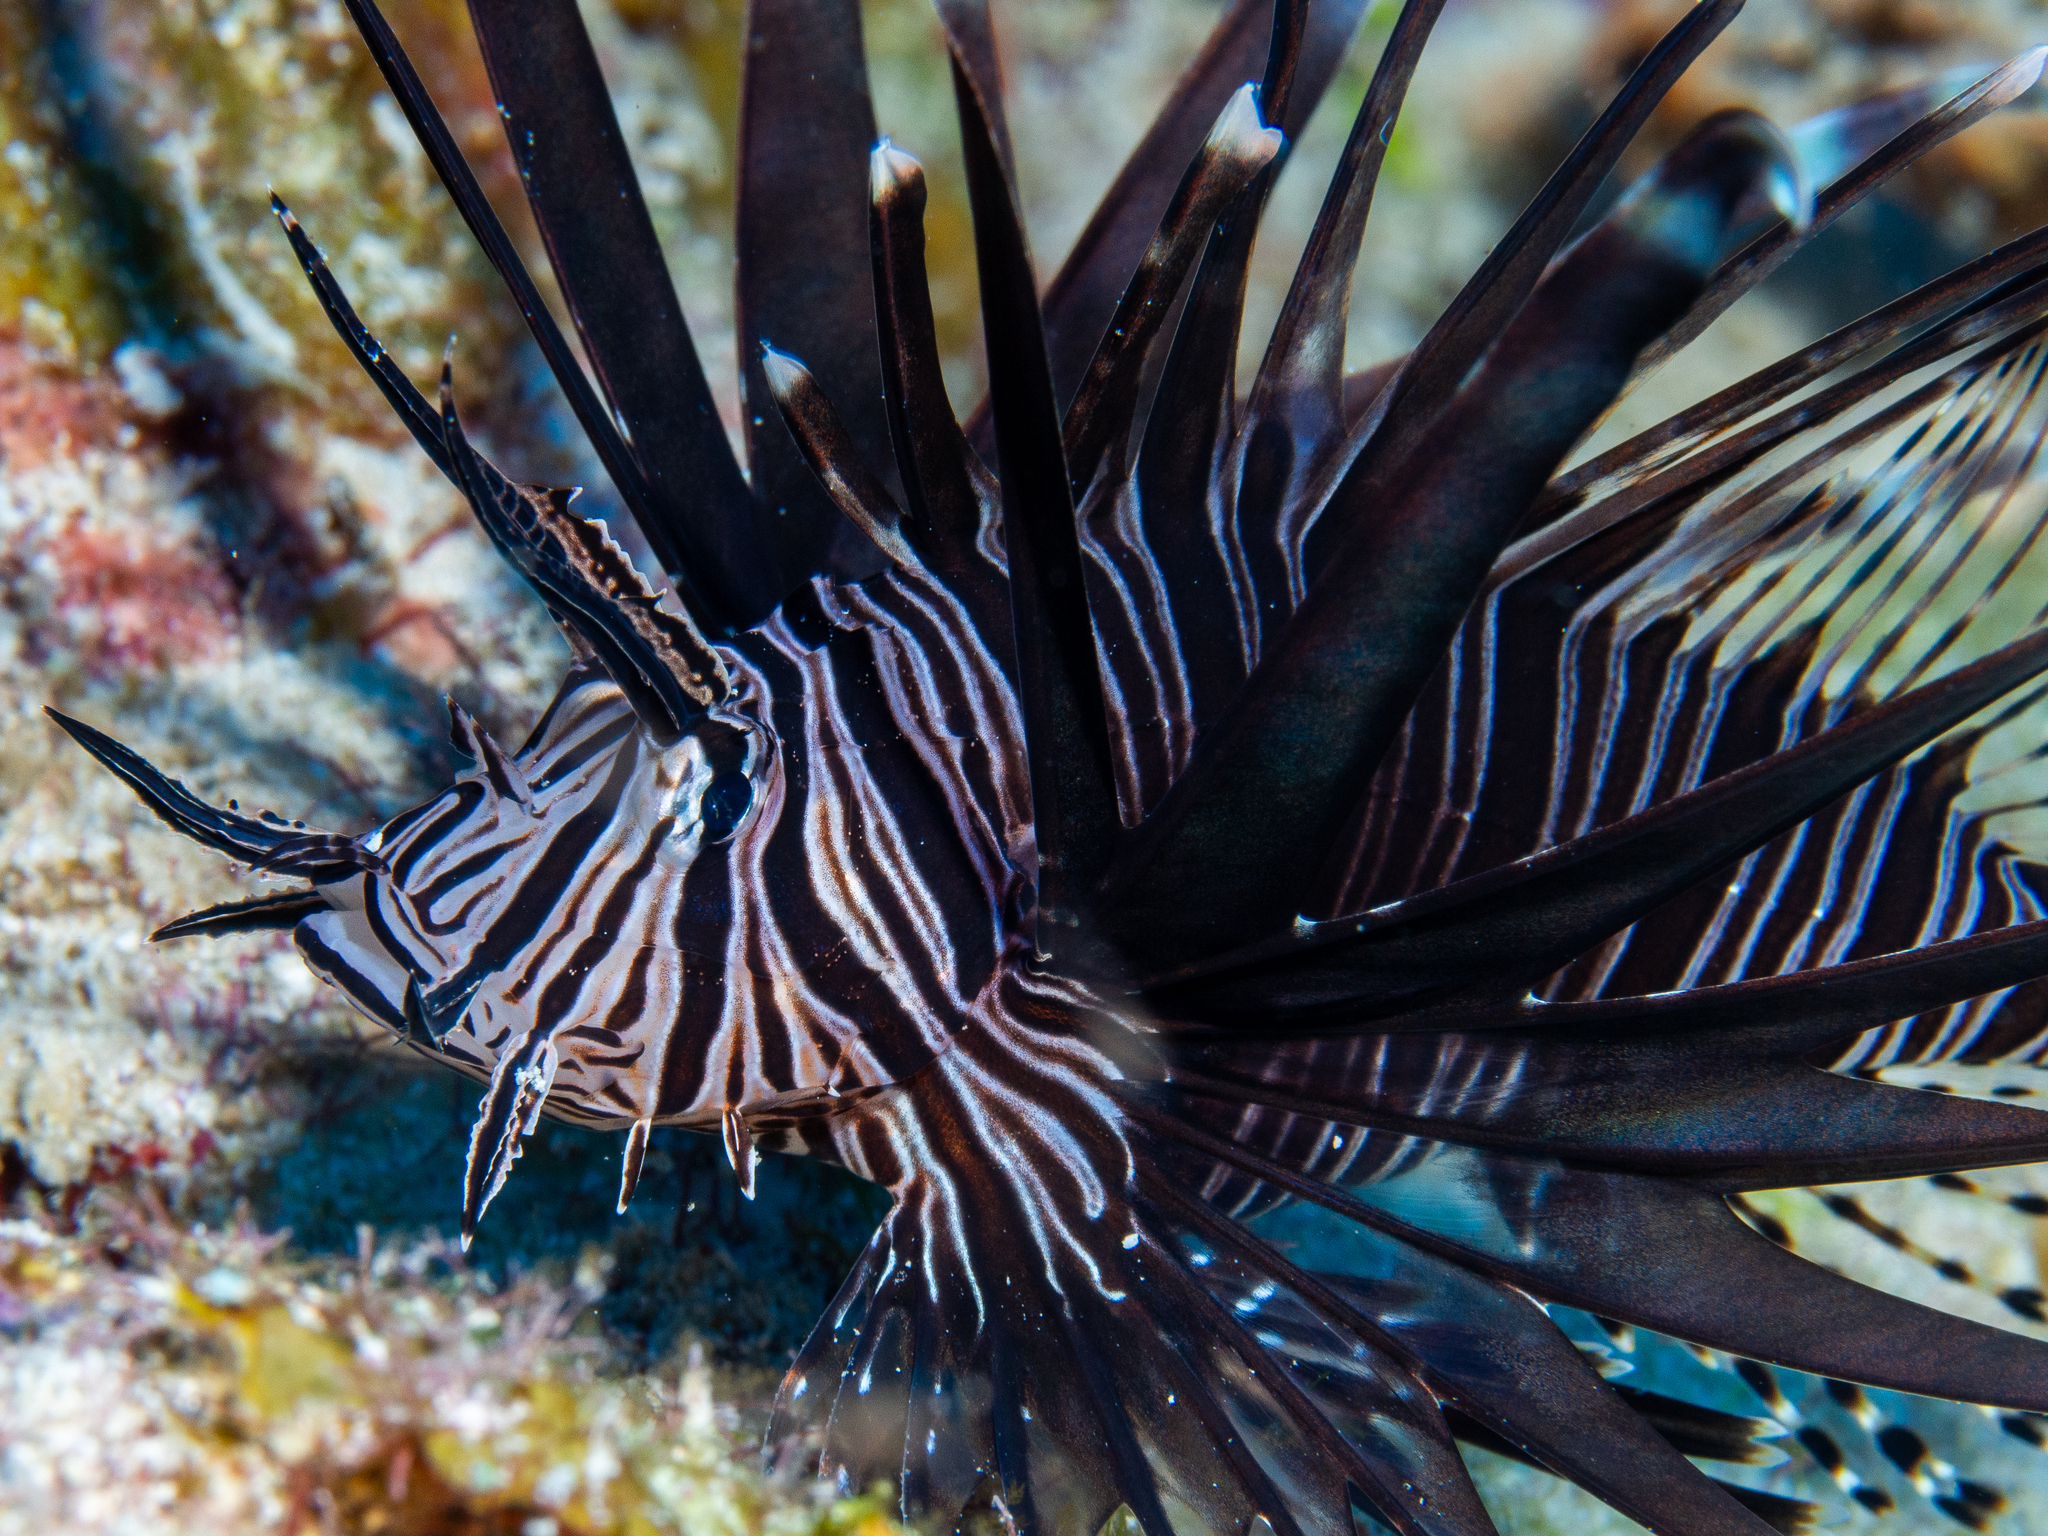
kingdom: Animalia
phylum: Chordata
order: Scorpaeniformes
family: Scorpaenidae
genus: Pterois
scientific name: Pterois volitans
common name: Lionfish
